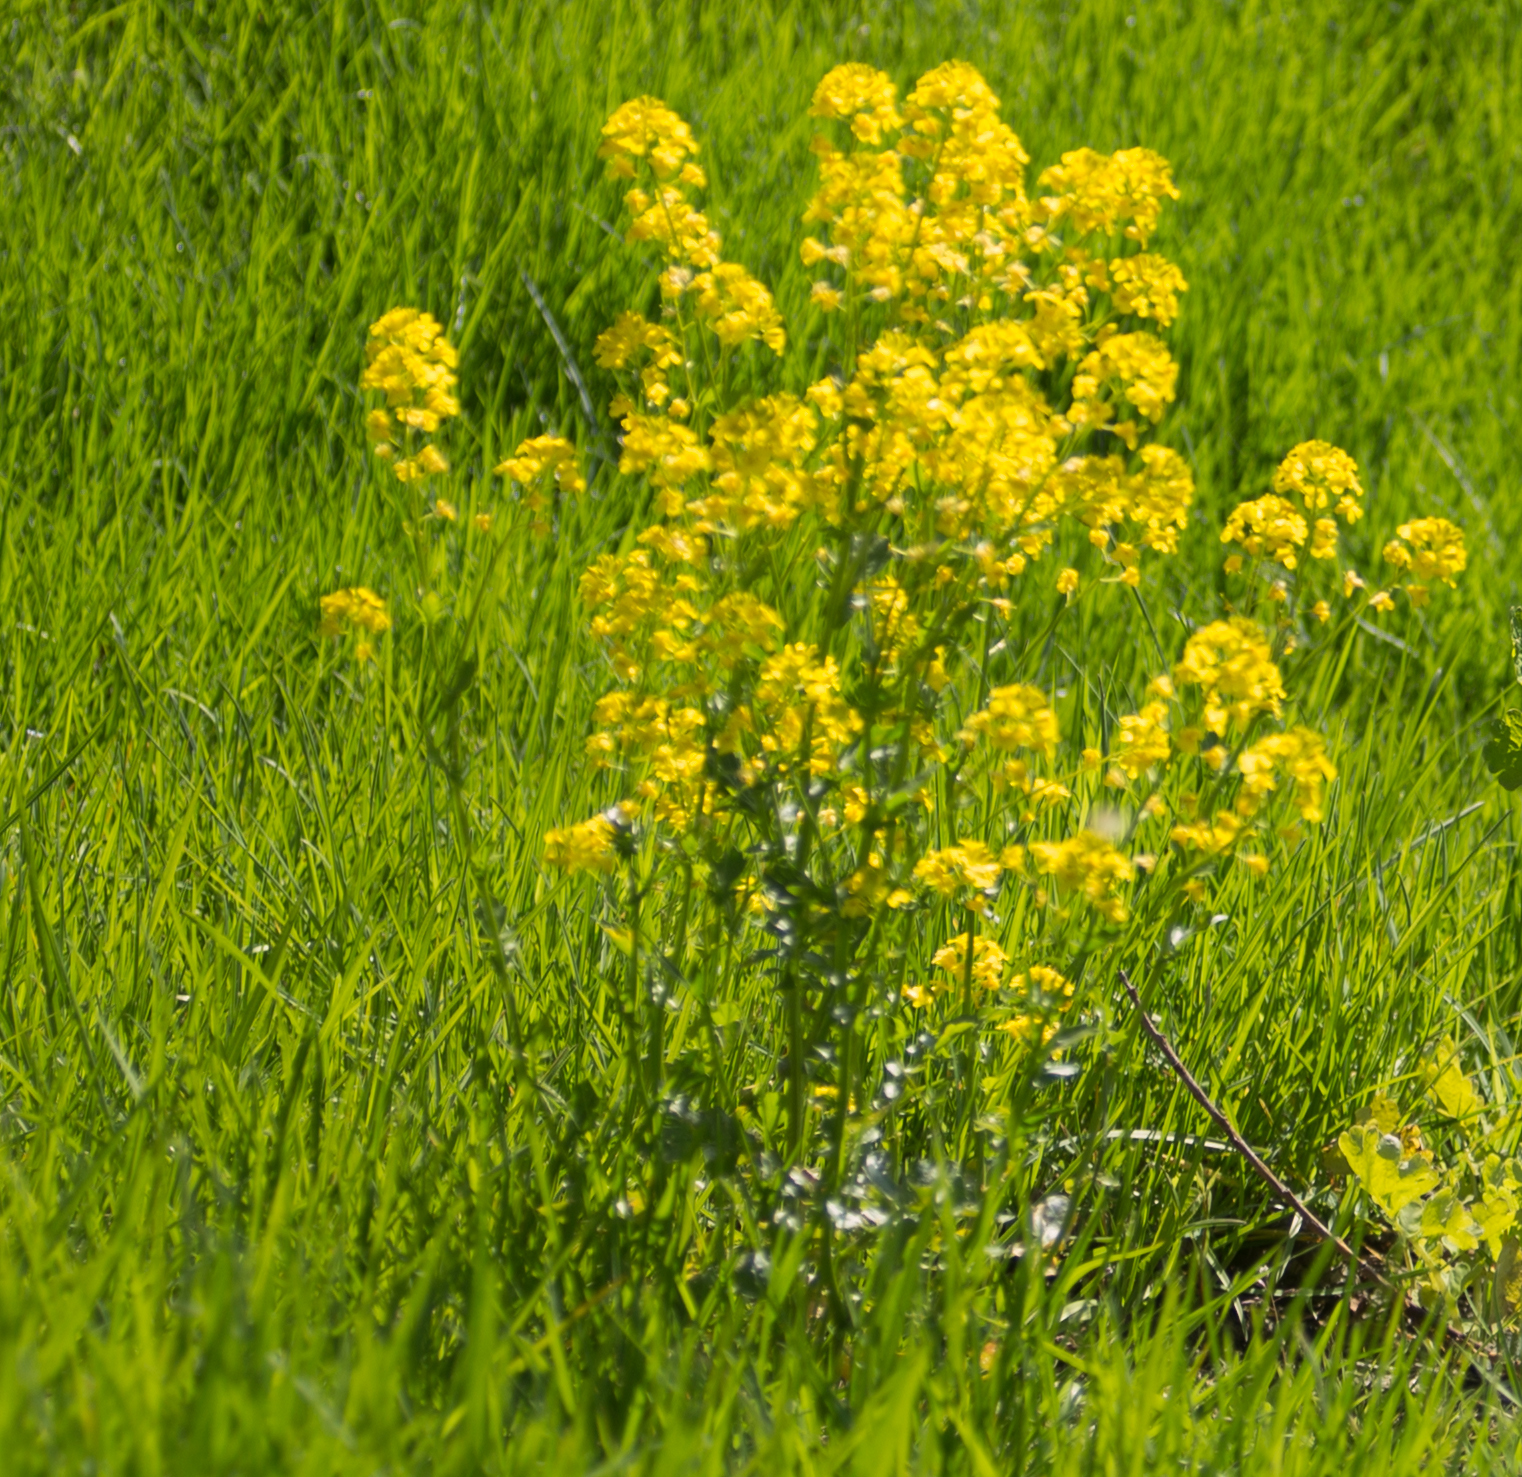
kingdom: Plantae
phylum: Tracheophyta
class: Magnoliopsida
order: Brassicales
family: Brassicaceae
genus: Barbarea
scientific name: Barbarea vulgaris
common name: Cressy-greens
